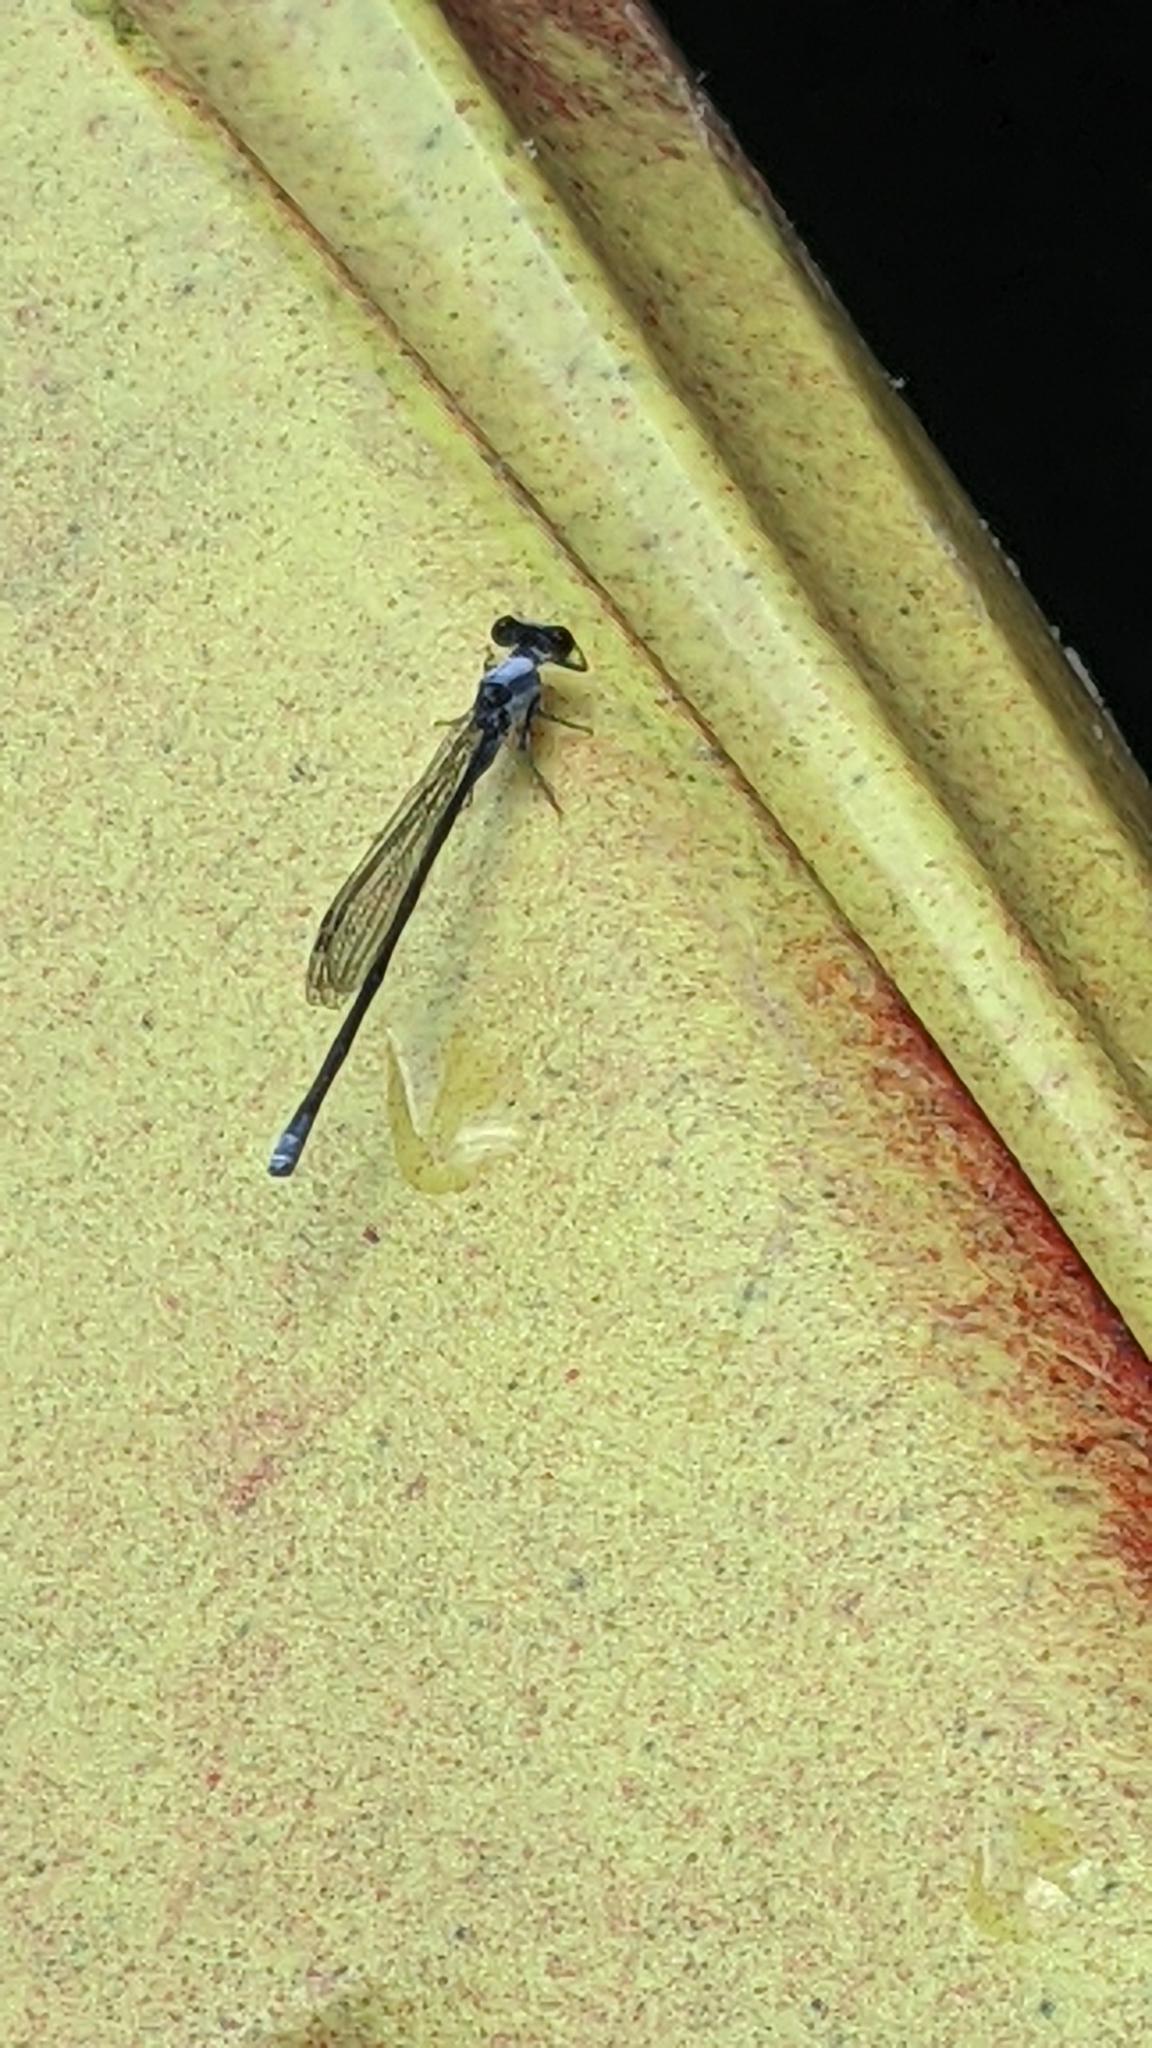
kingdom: Animalia
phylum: Arthropoda
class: Insecta
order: Odonata
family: Coenagrionidae
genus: Argia
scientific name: Argia moesta
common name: Powdered dancer
